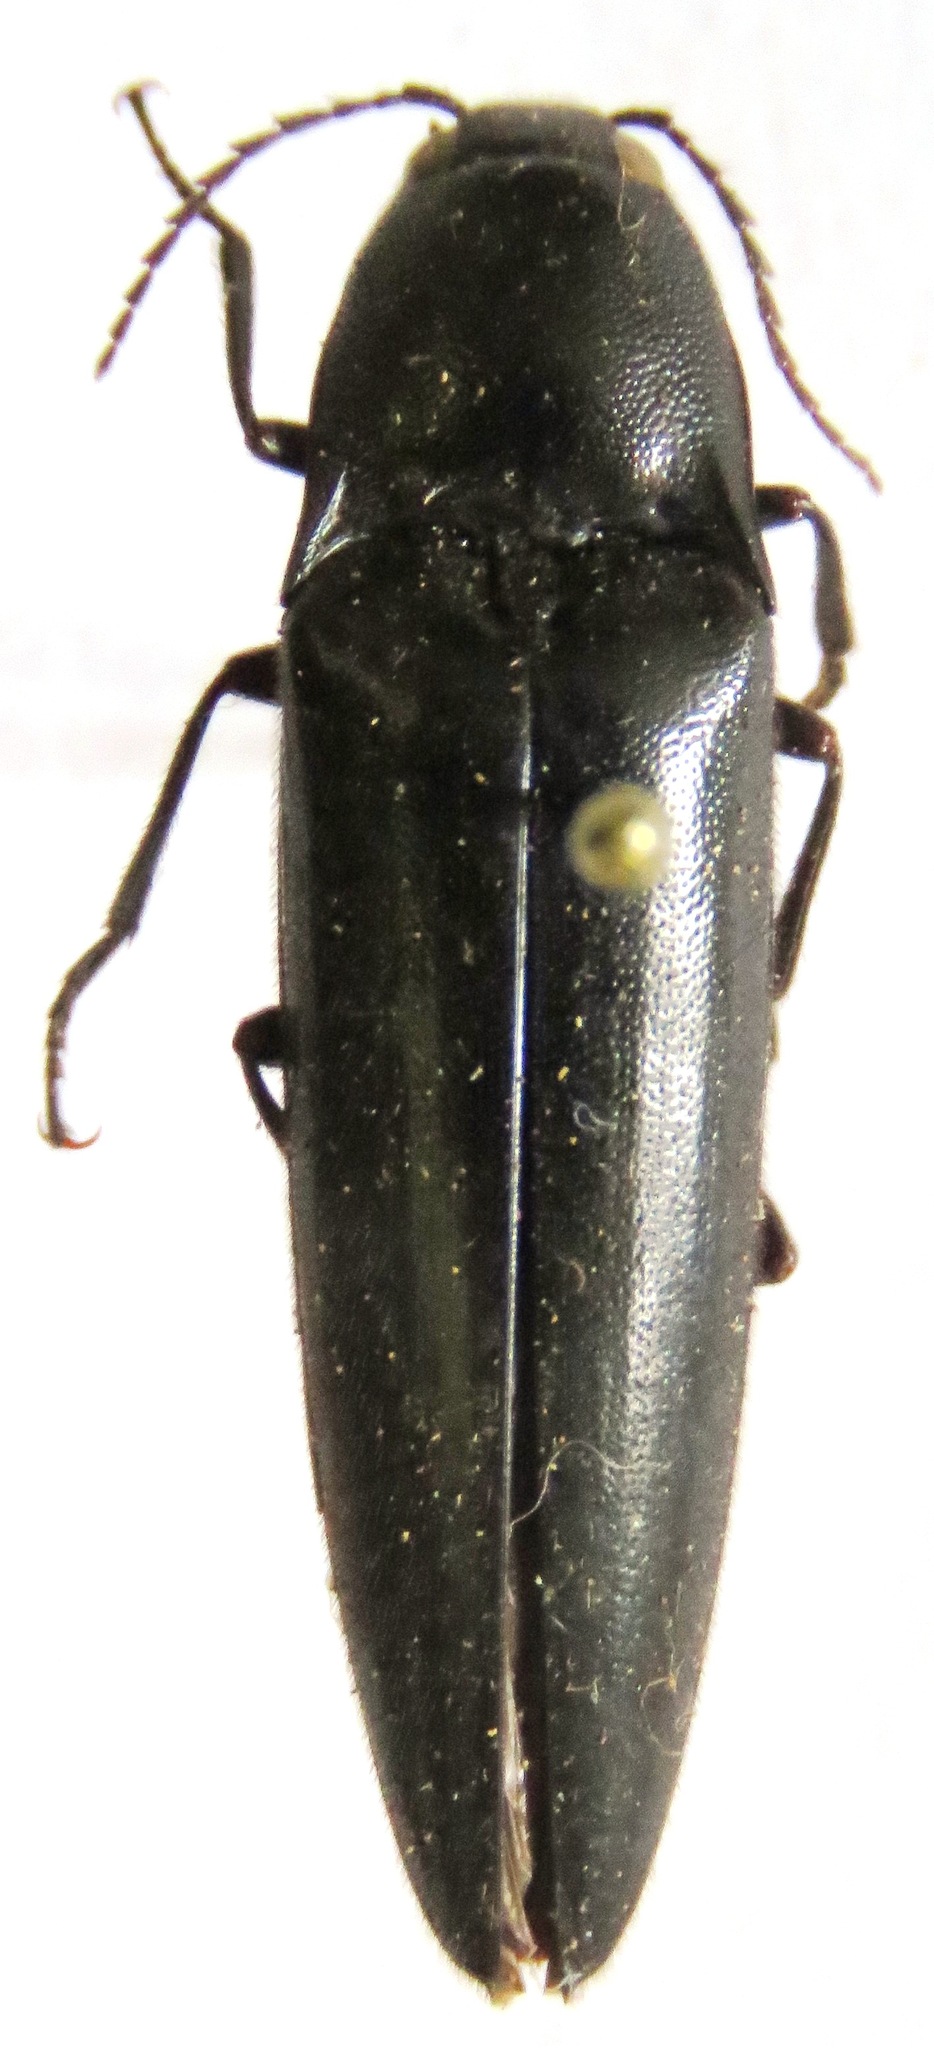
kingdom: Animalia
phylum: Arthropoda
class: Insecta
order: Coleoptera
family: Elateridae
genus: Orthostethus
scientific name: Orthostethus
